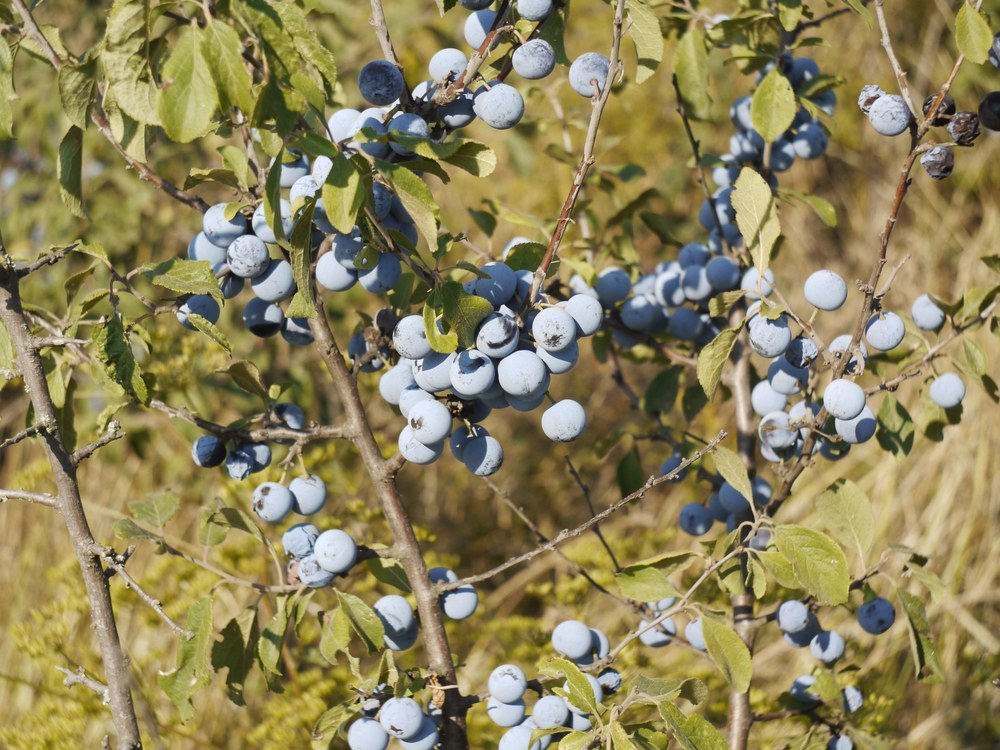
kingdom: Plantae
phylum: Tracheophyta
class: Magnoliopsida
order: Rosales
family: Rosaceae
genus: Prunus
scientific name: Prunus spinosa
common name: Blackthorn
